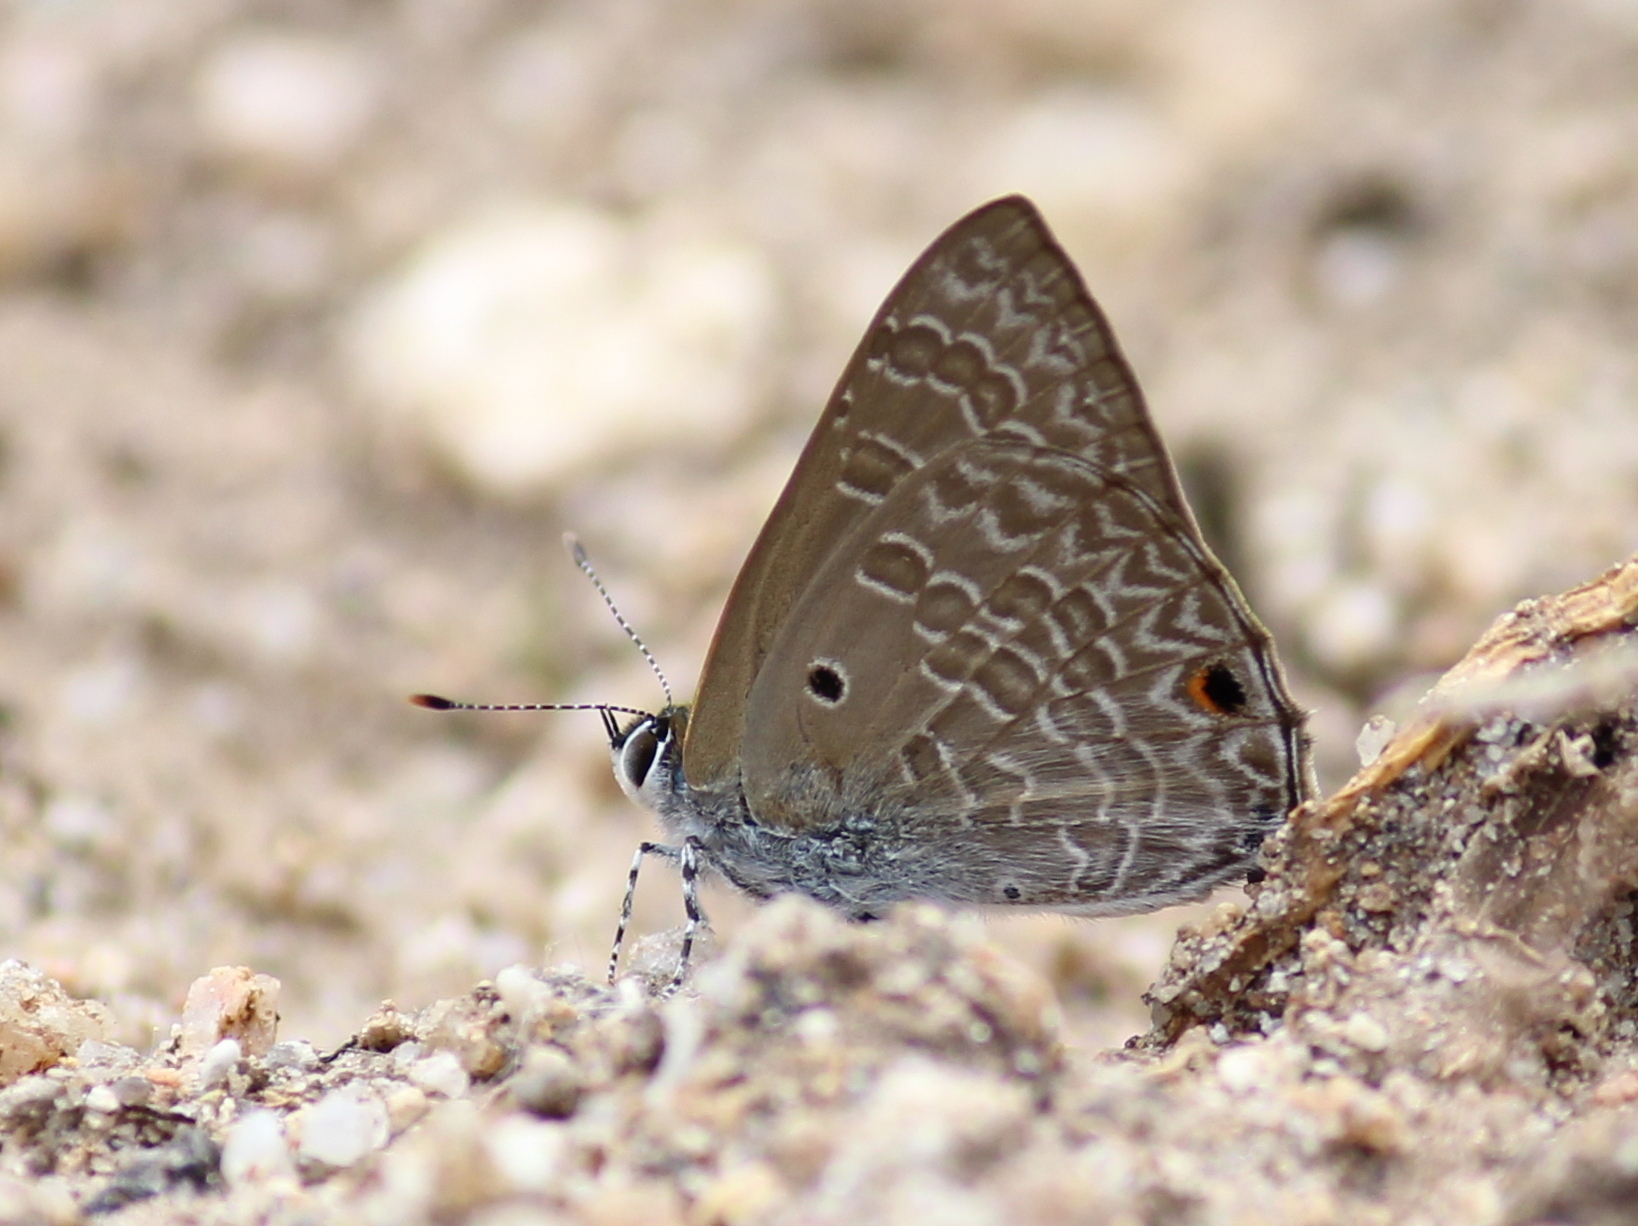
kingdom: Animalia
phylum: Arthropoda
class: Insecta
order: Lepidoptera
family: Lycaenidae
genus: Anthene
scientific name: Anthene lycaenina
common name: Pointed ciliate blue
